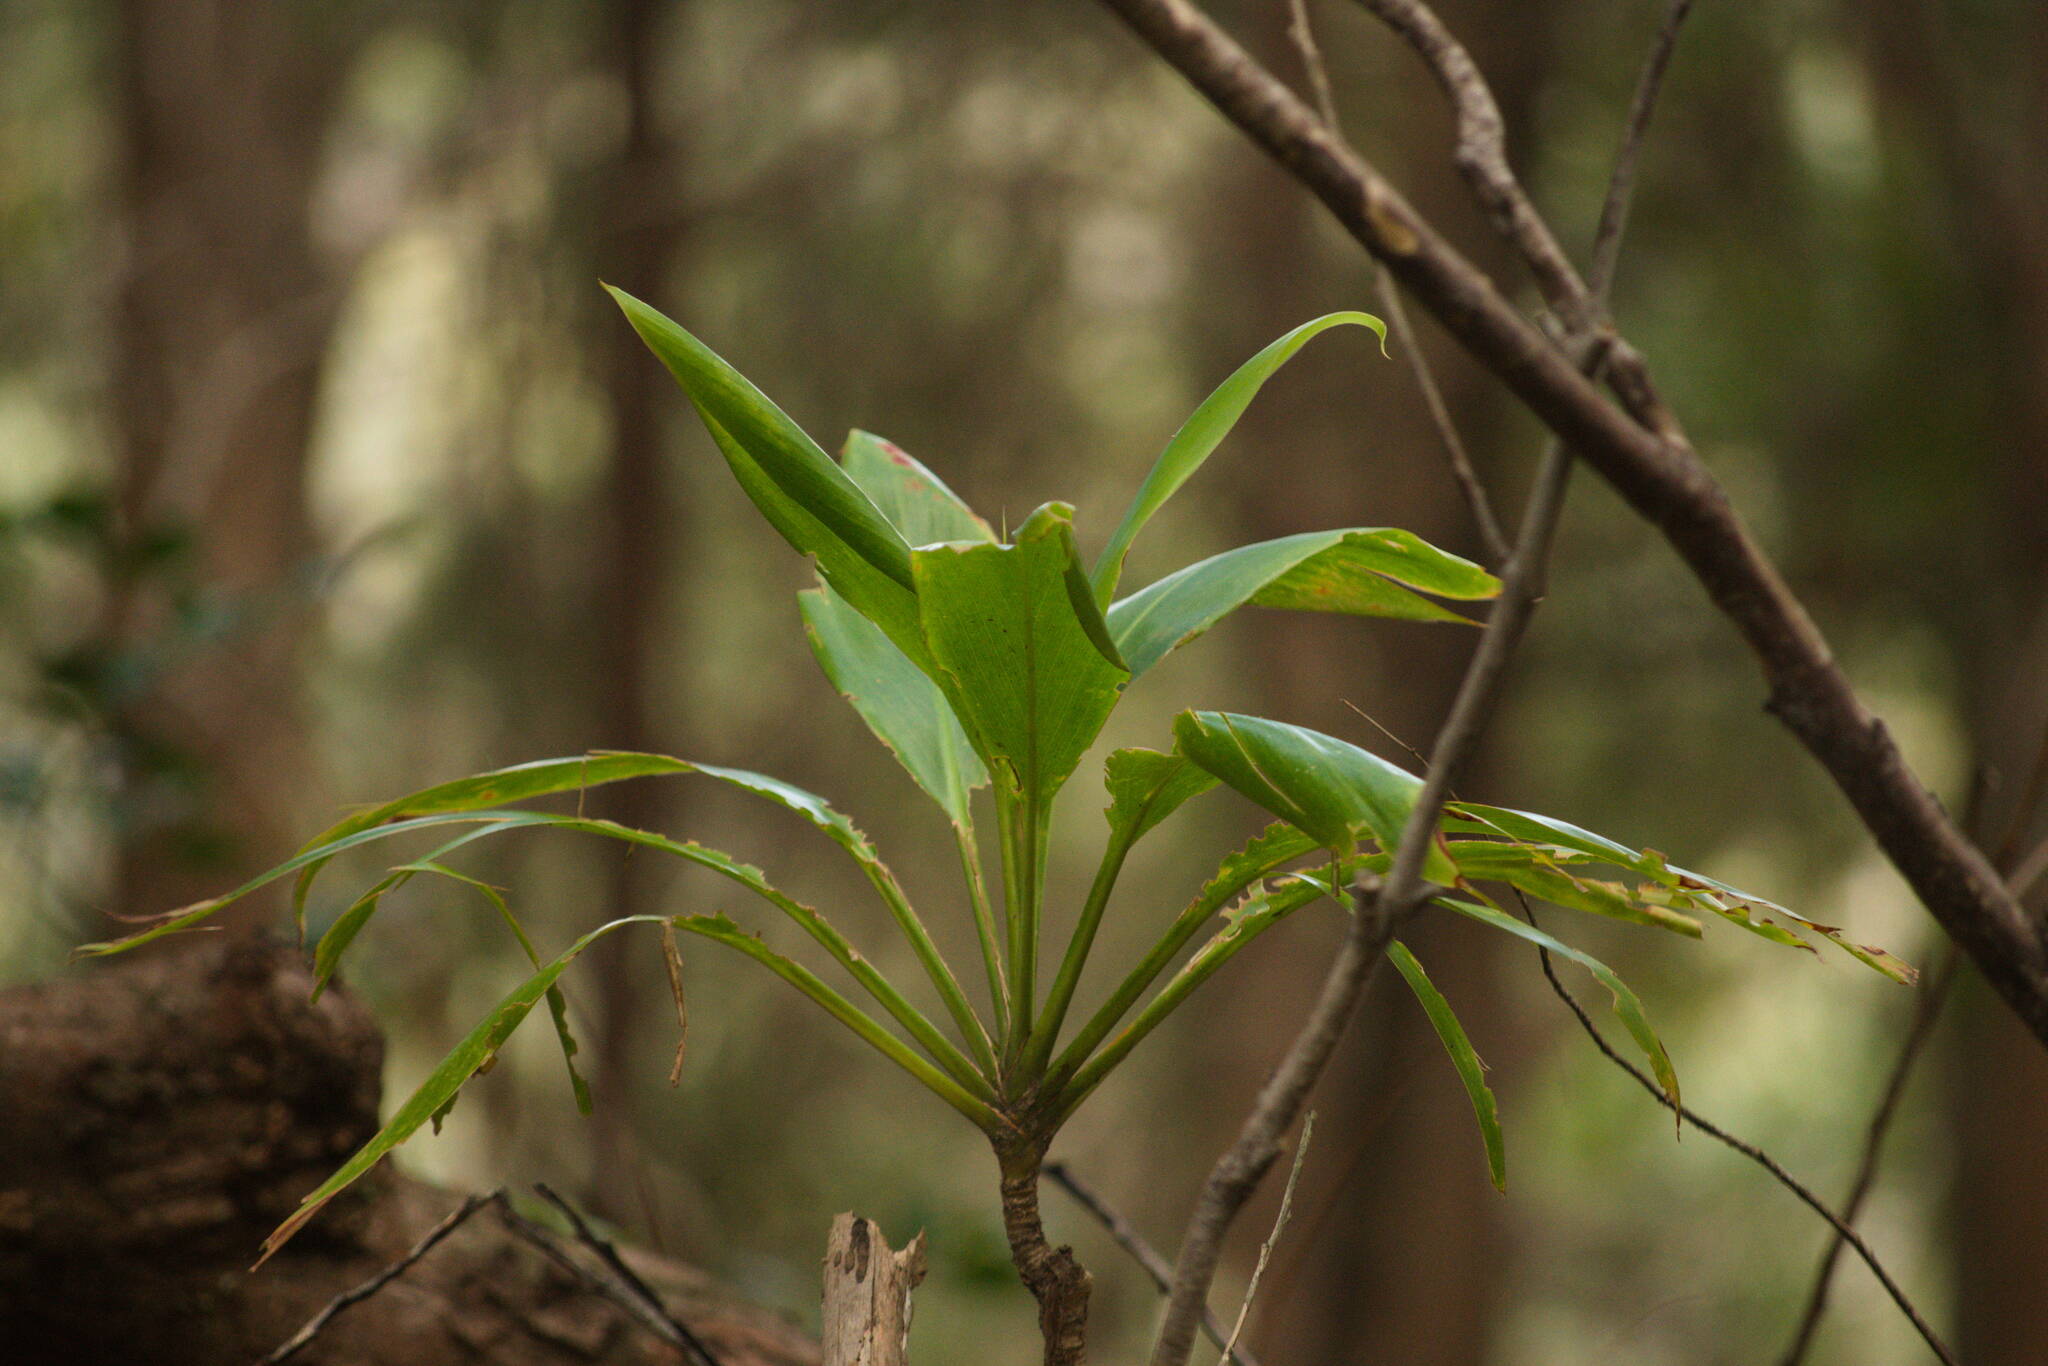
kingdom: Plantae
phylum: Tracheophyta
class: Liliopsida
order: Asparagales
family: Asparagaceae
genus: Cordyline
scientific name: Cordyline fruticosa
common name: Good-luck-plant
